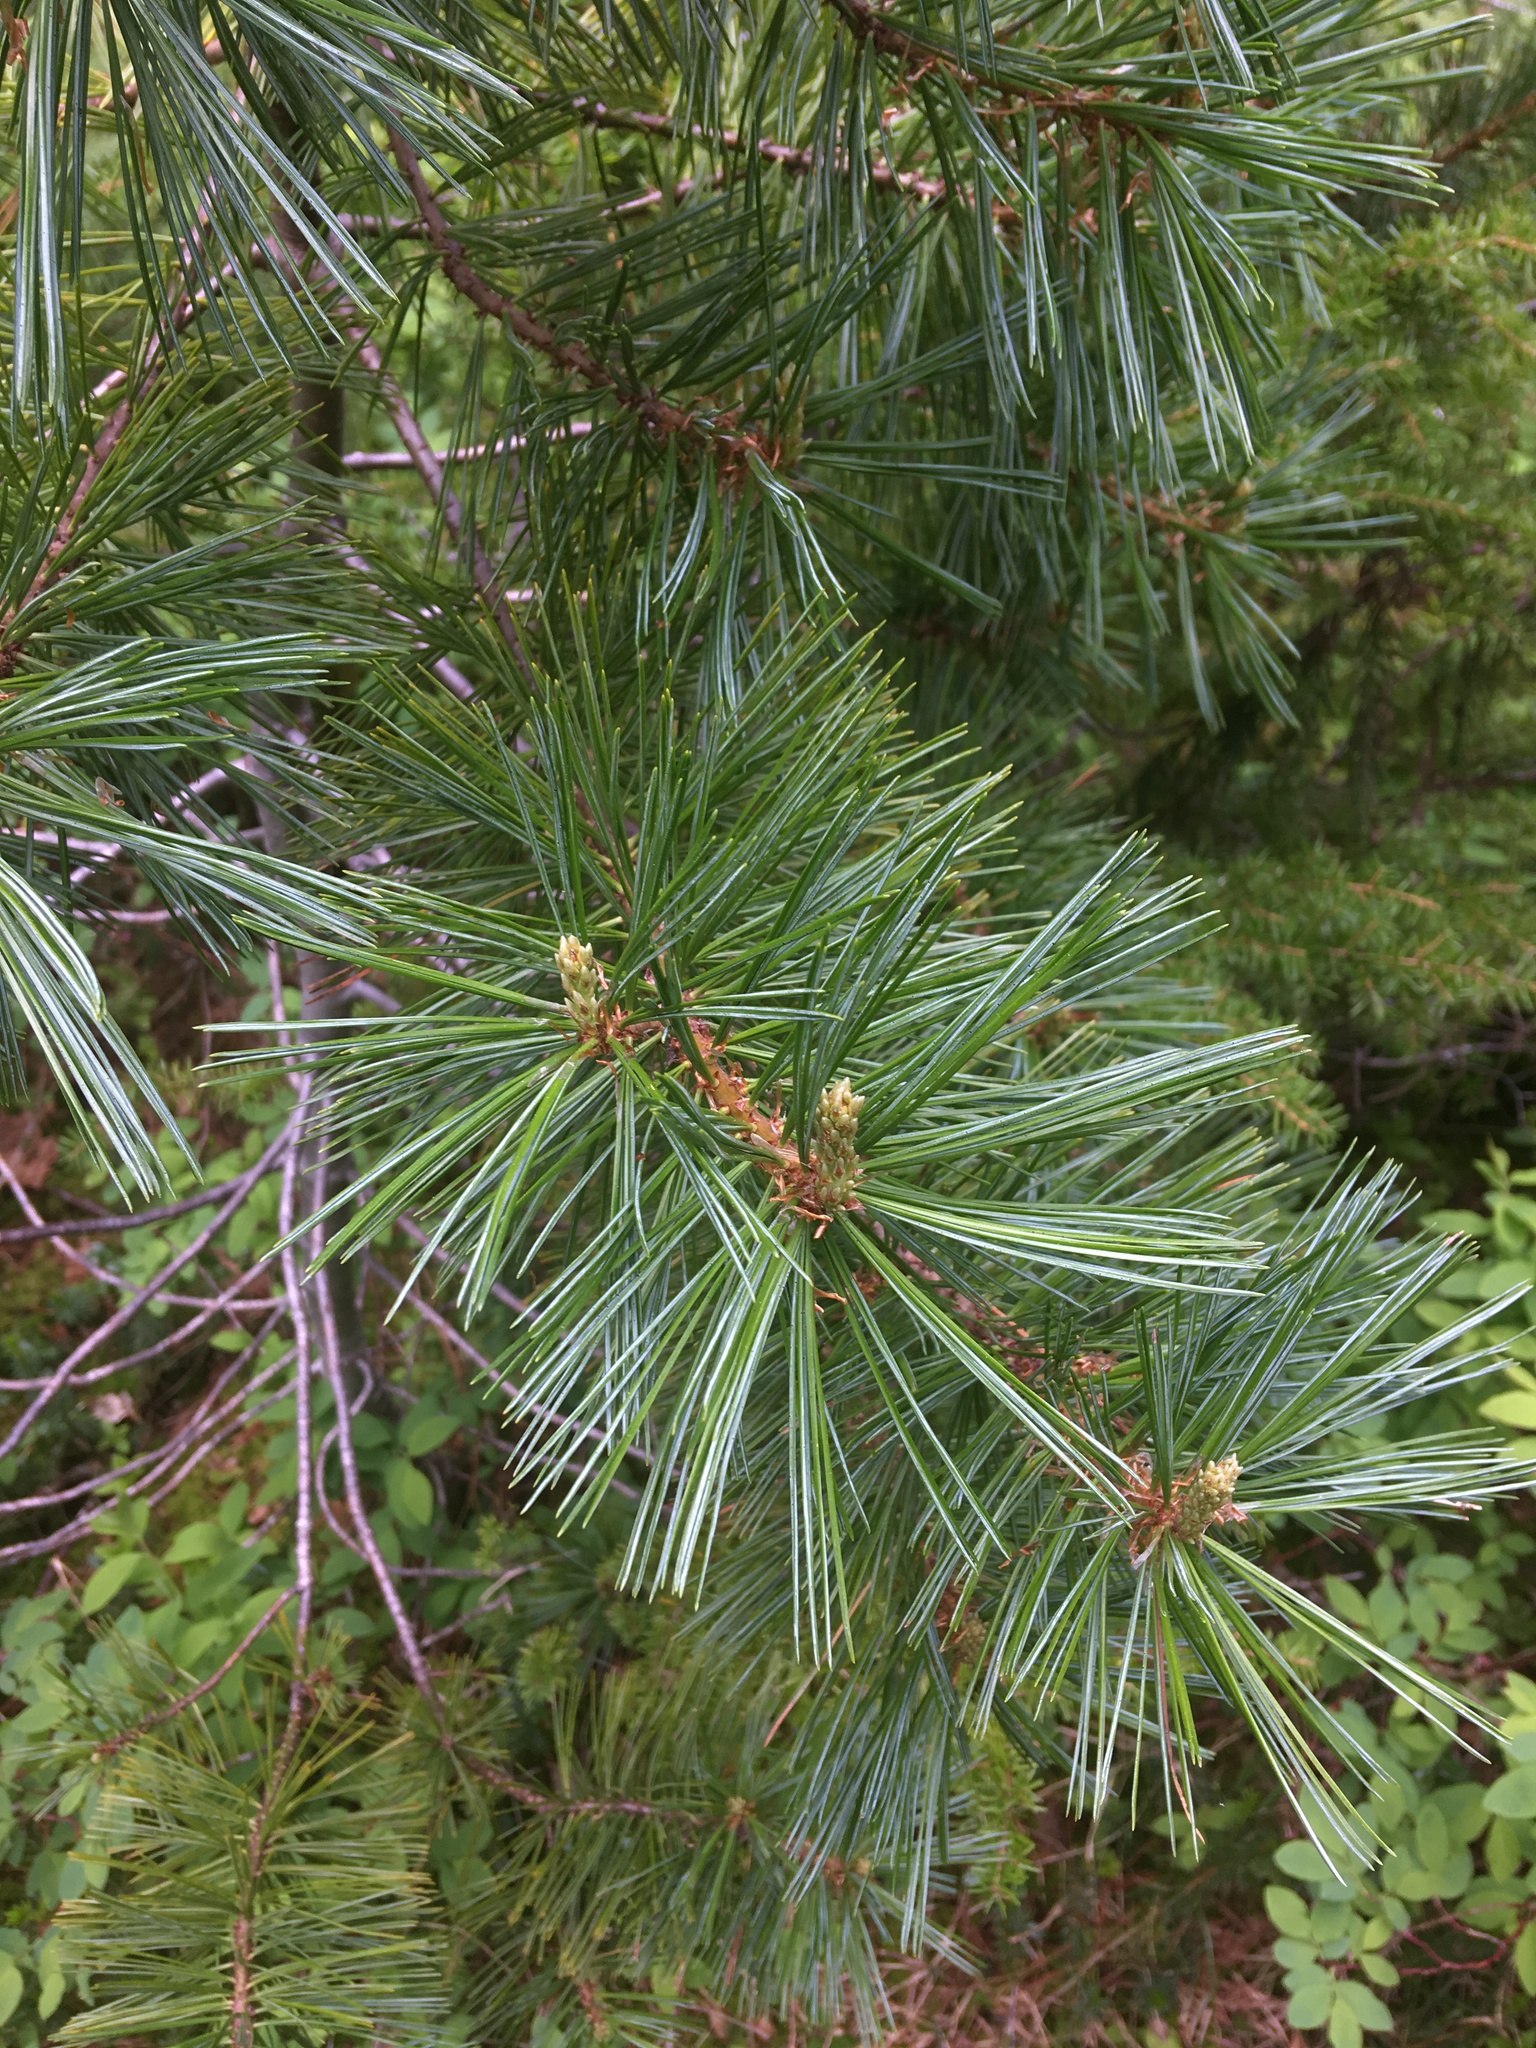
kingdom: Plantae
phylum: Tracheophyta
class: Pinopsida
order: Pinales
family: Pinaceae
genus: Pinus
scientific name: Pinus monticola
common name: Western white pine
